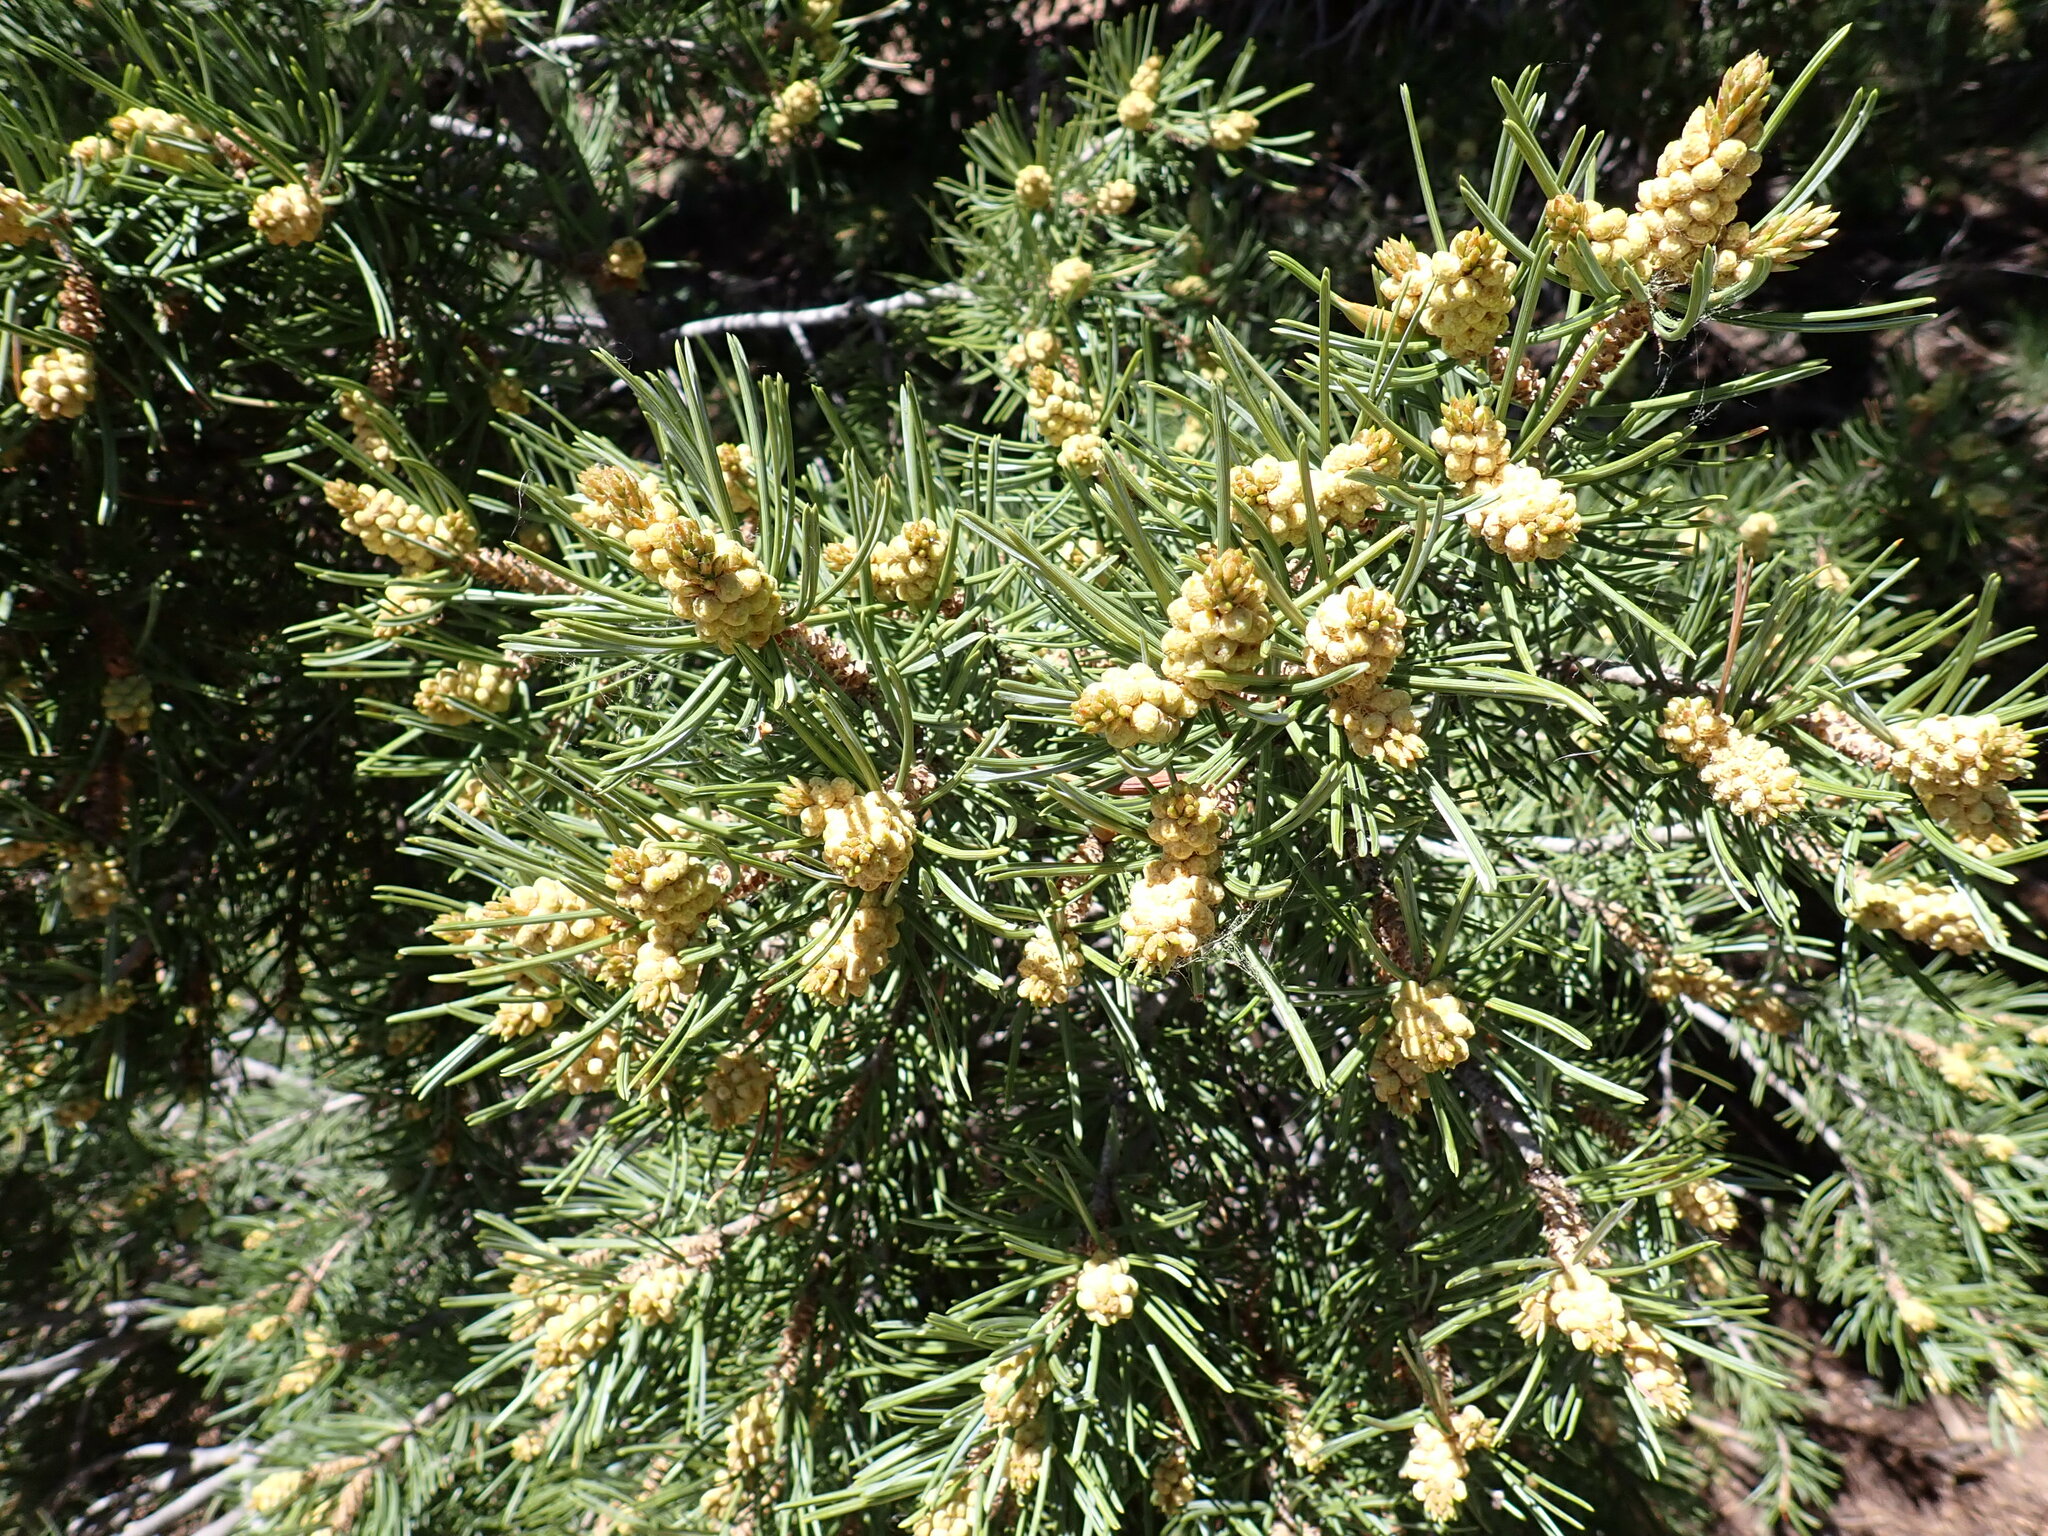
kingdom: Plantae
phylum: Tracheophyta
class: Pinopsida
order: Pinales
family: Pinaceae
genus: Pinus
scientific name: Pinus edulis
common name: Colorado pinyon
